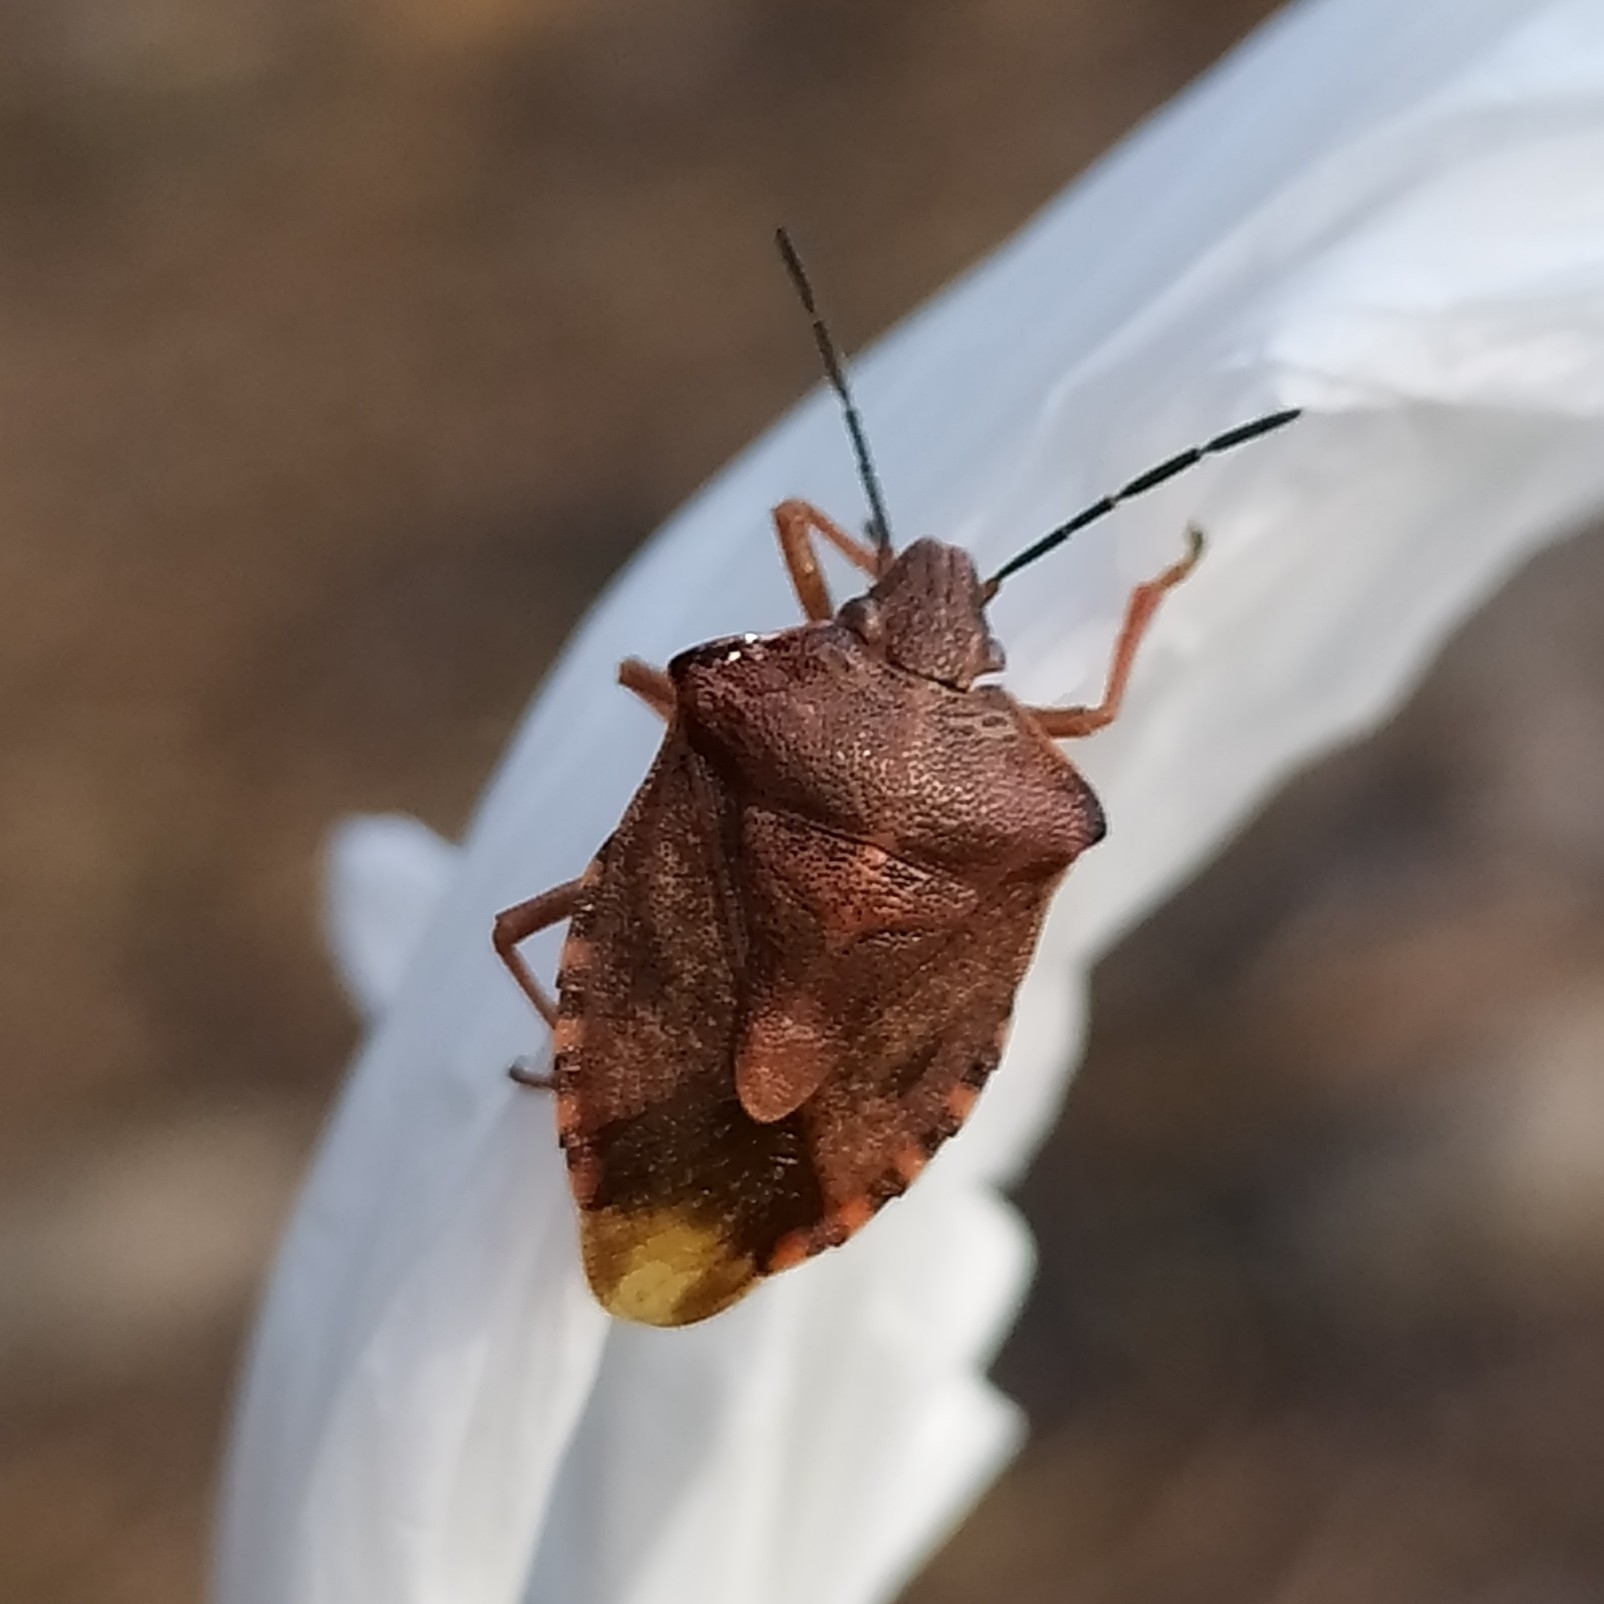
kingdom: Animalia
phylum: Arthropoda
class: Insecta
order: Hemiptera
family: Pentatomidae
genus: Carpocoris
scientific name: Carpocoris purpureipennis
